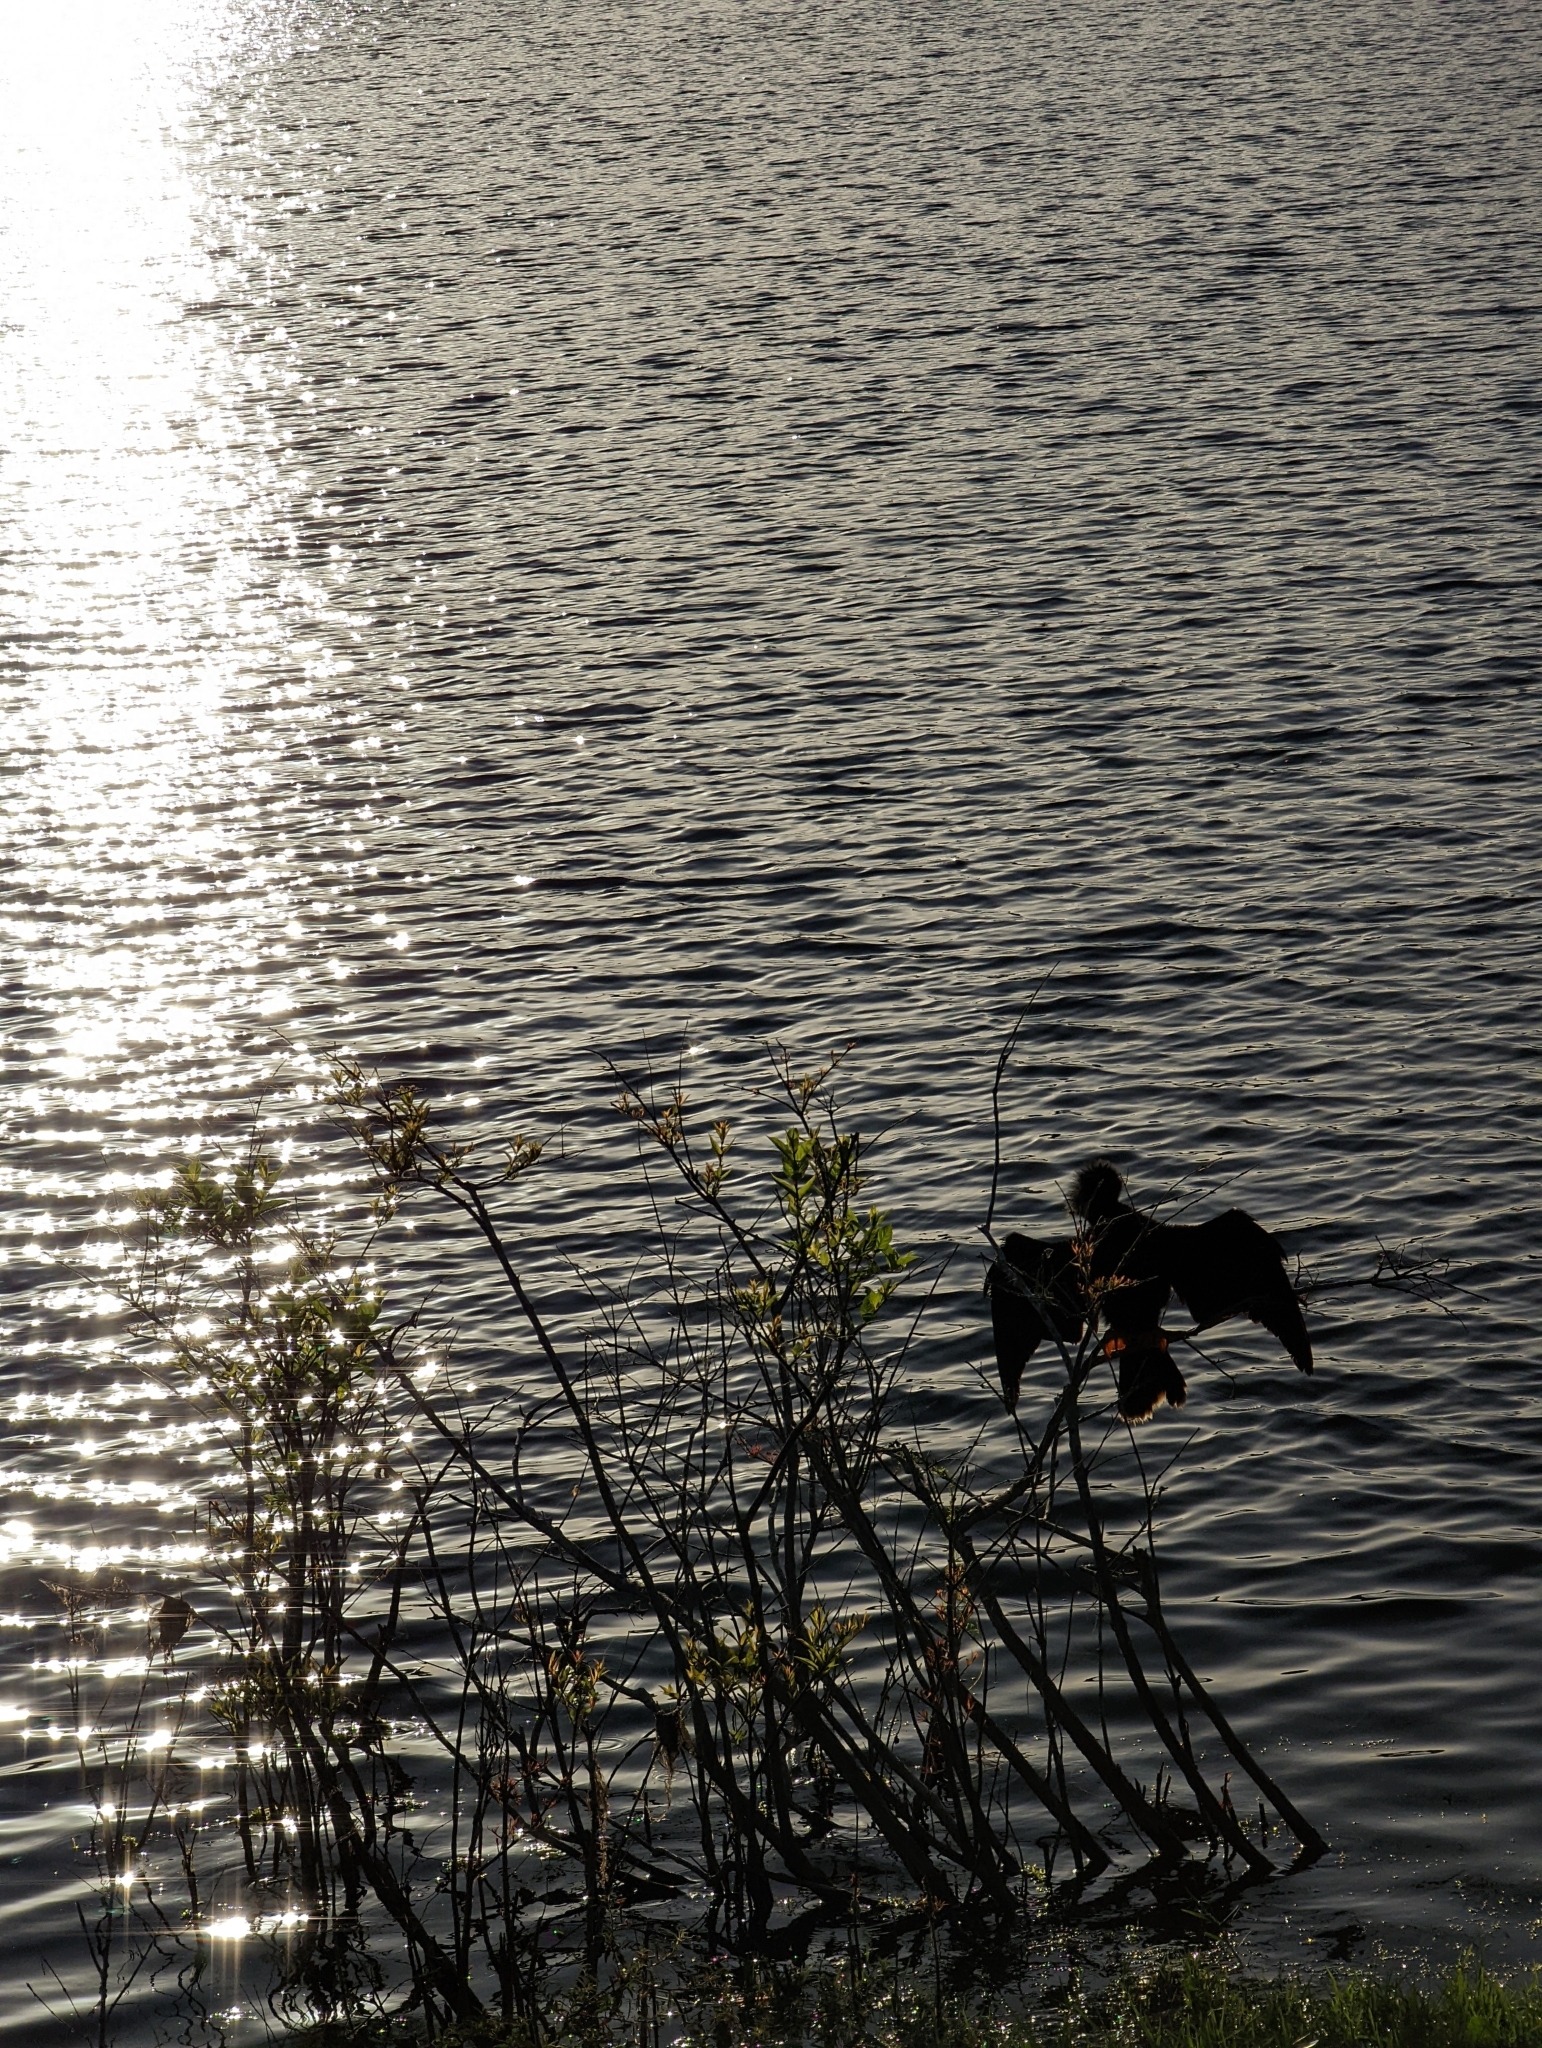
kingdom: Animalia
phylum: Chordata
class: Aves
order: Suliformes
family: Anhingidae
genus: Anhinga
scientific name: Anhinga anhinga
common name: Anhinga
